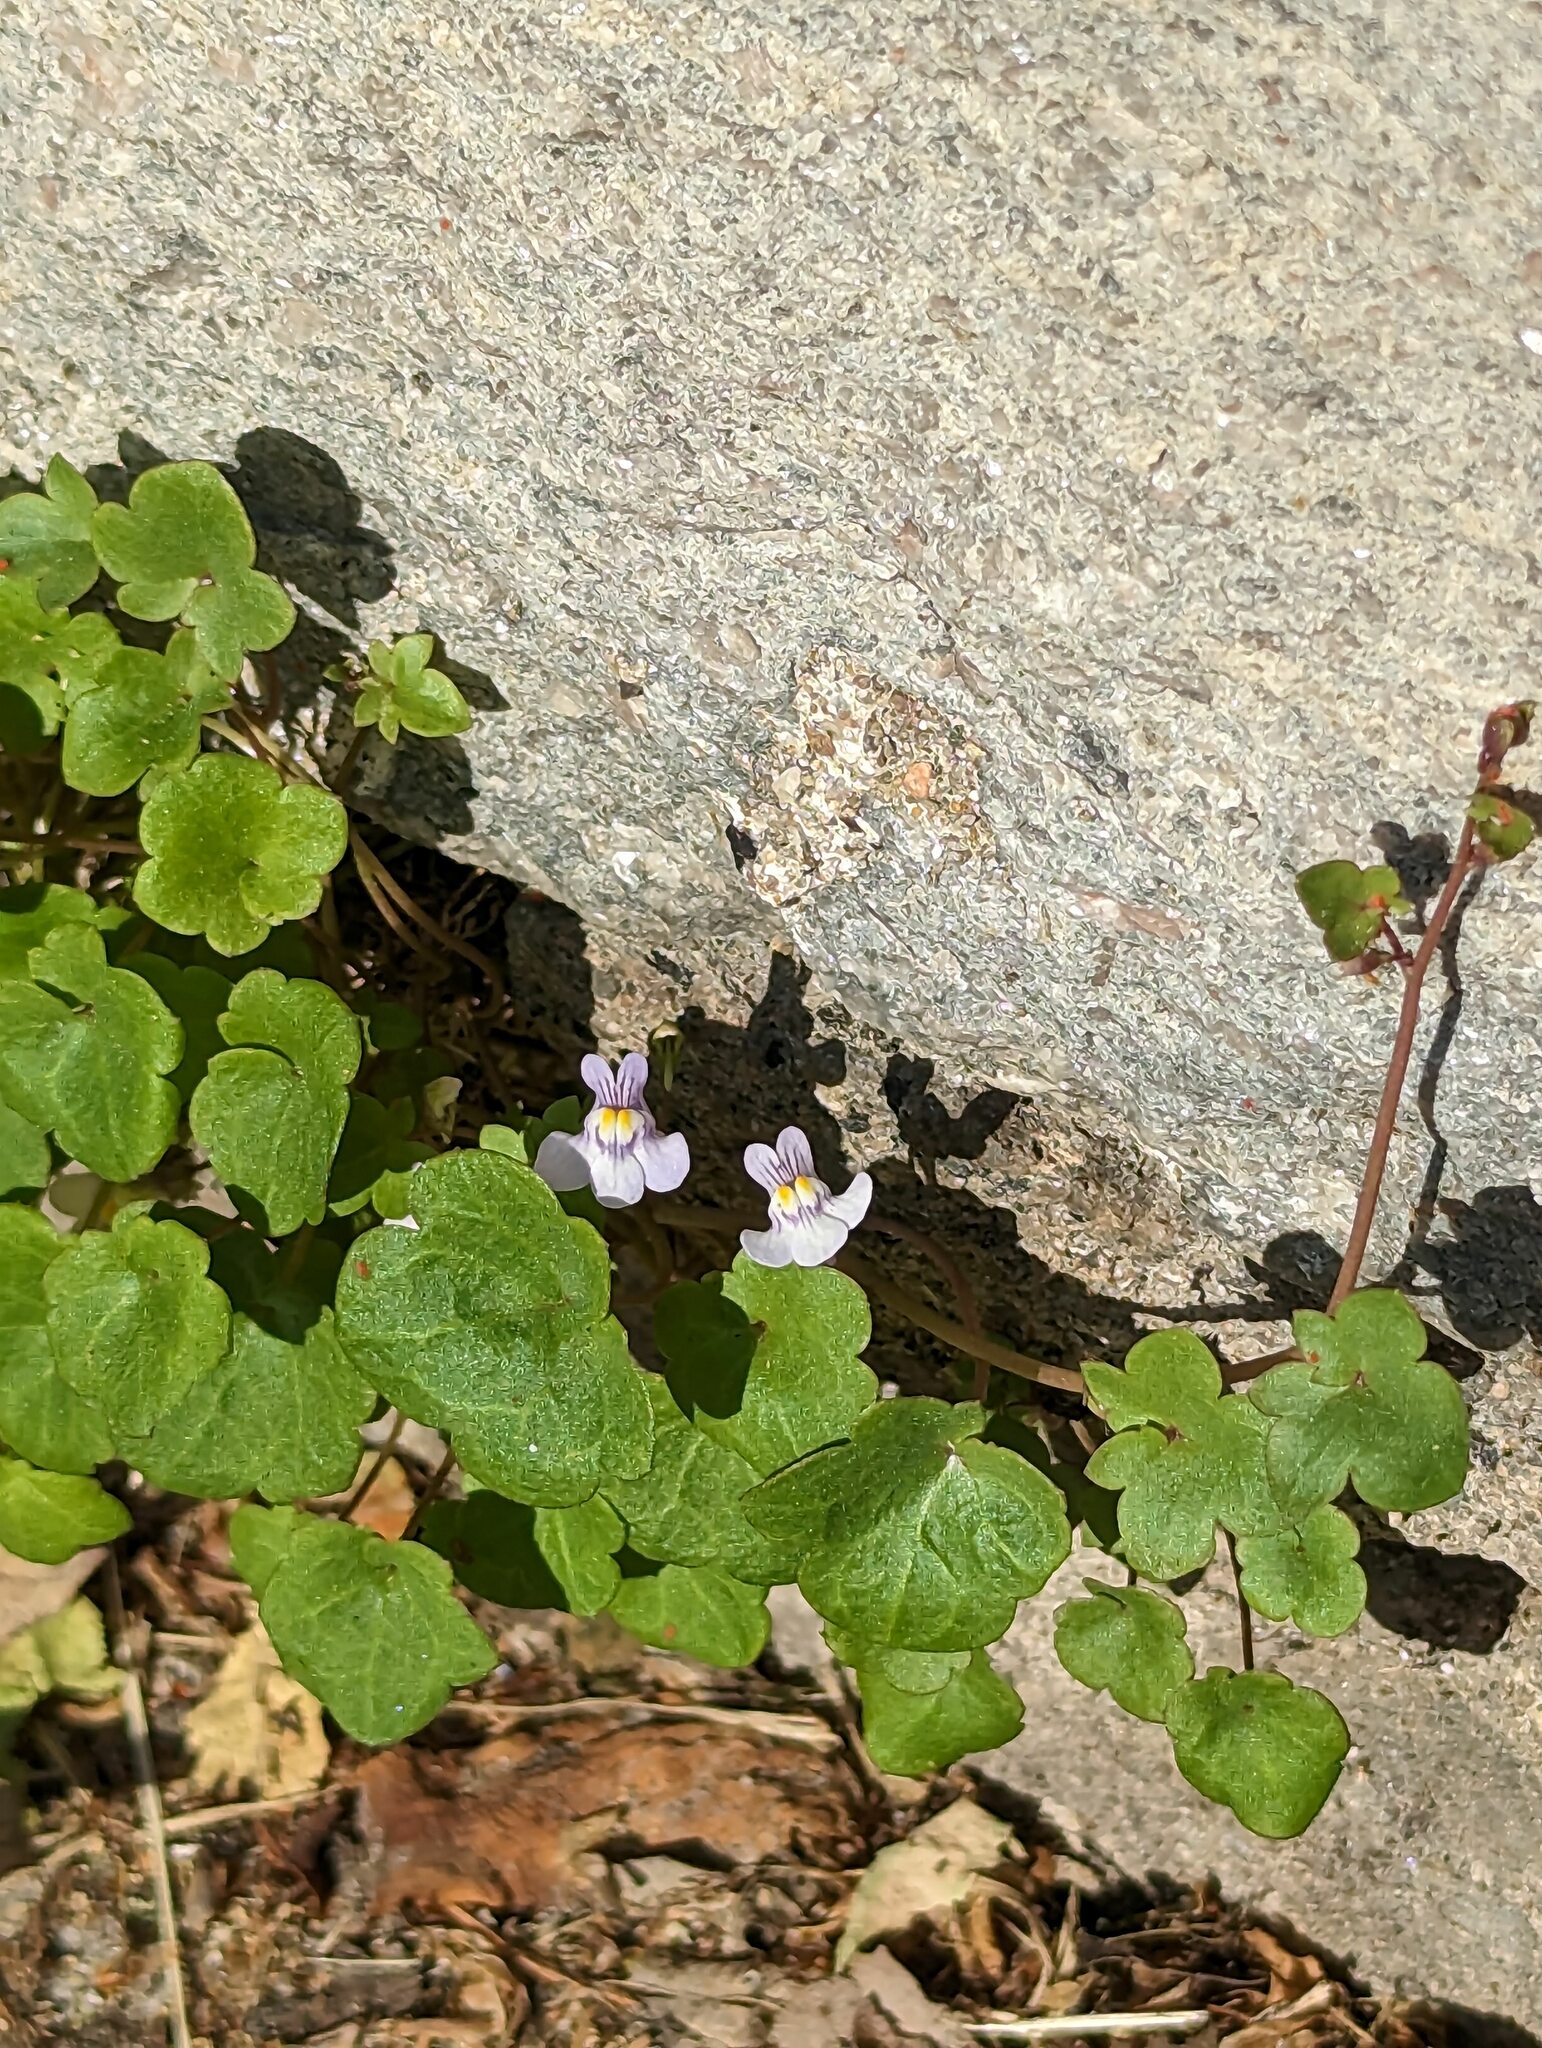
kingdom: Plantae
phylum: Tracheophyta
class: Magnoliopsida
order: Lamiales
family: Plantaginaceae
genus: Cymbalaria
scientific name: Cymbalaria muralis
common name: Ivy-leaved toadflax
